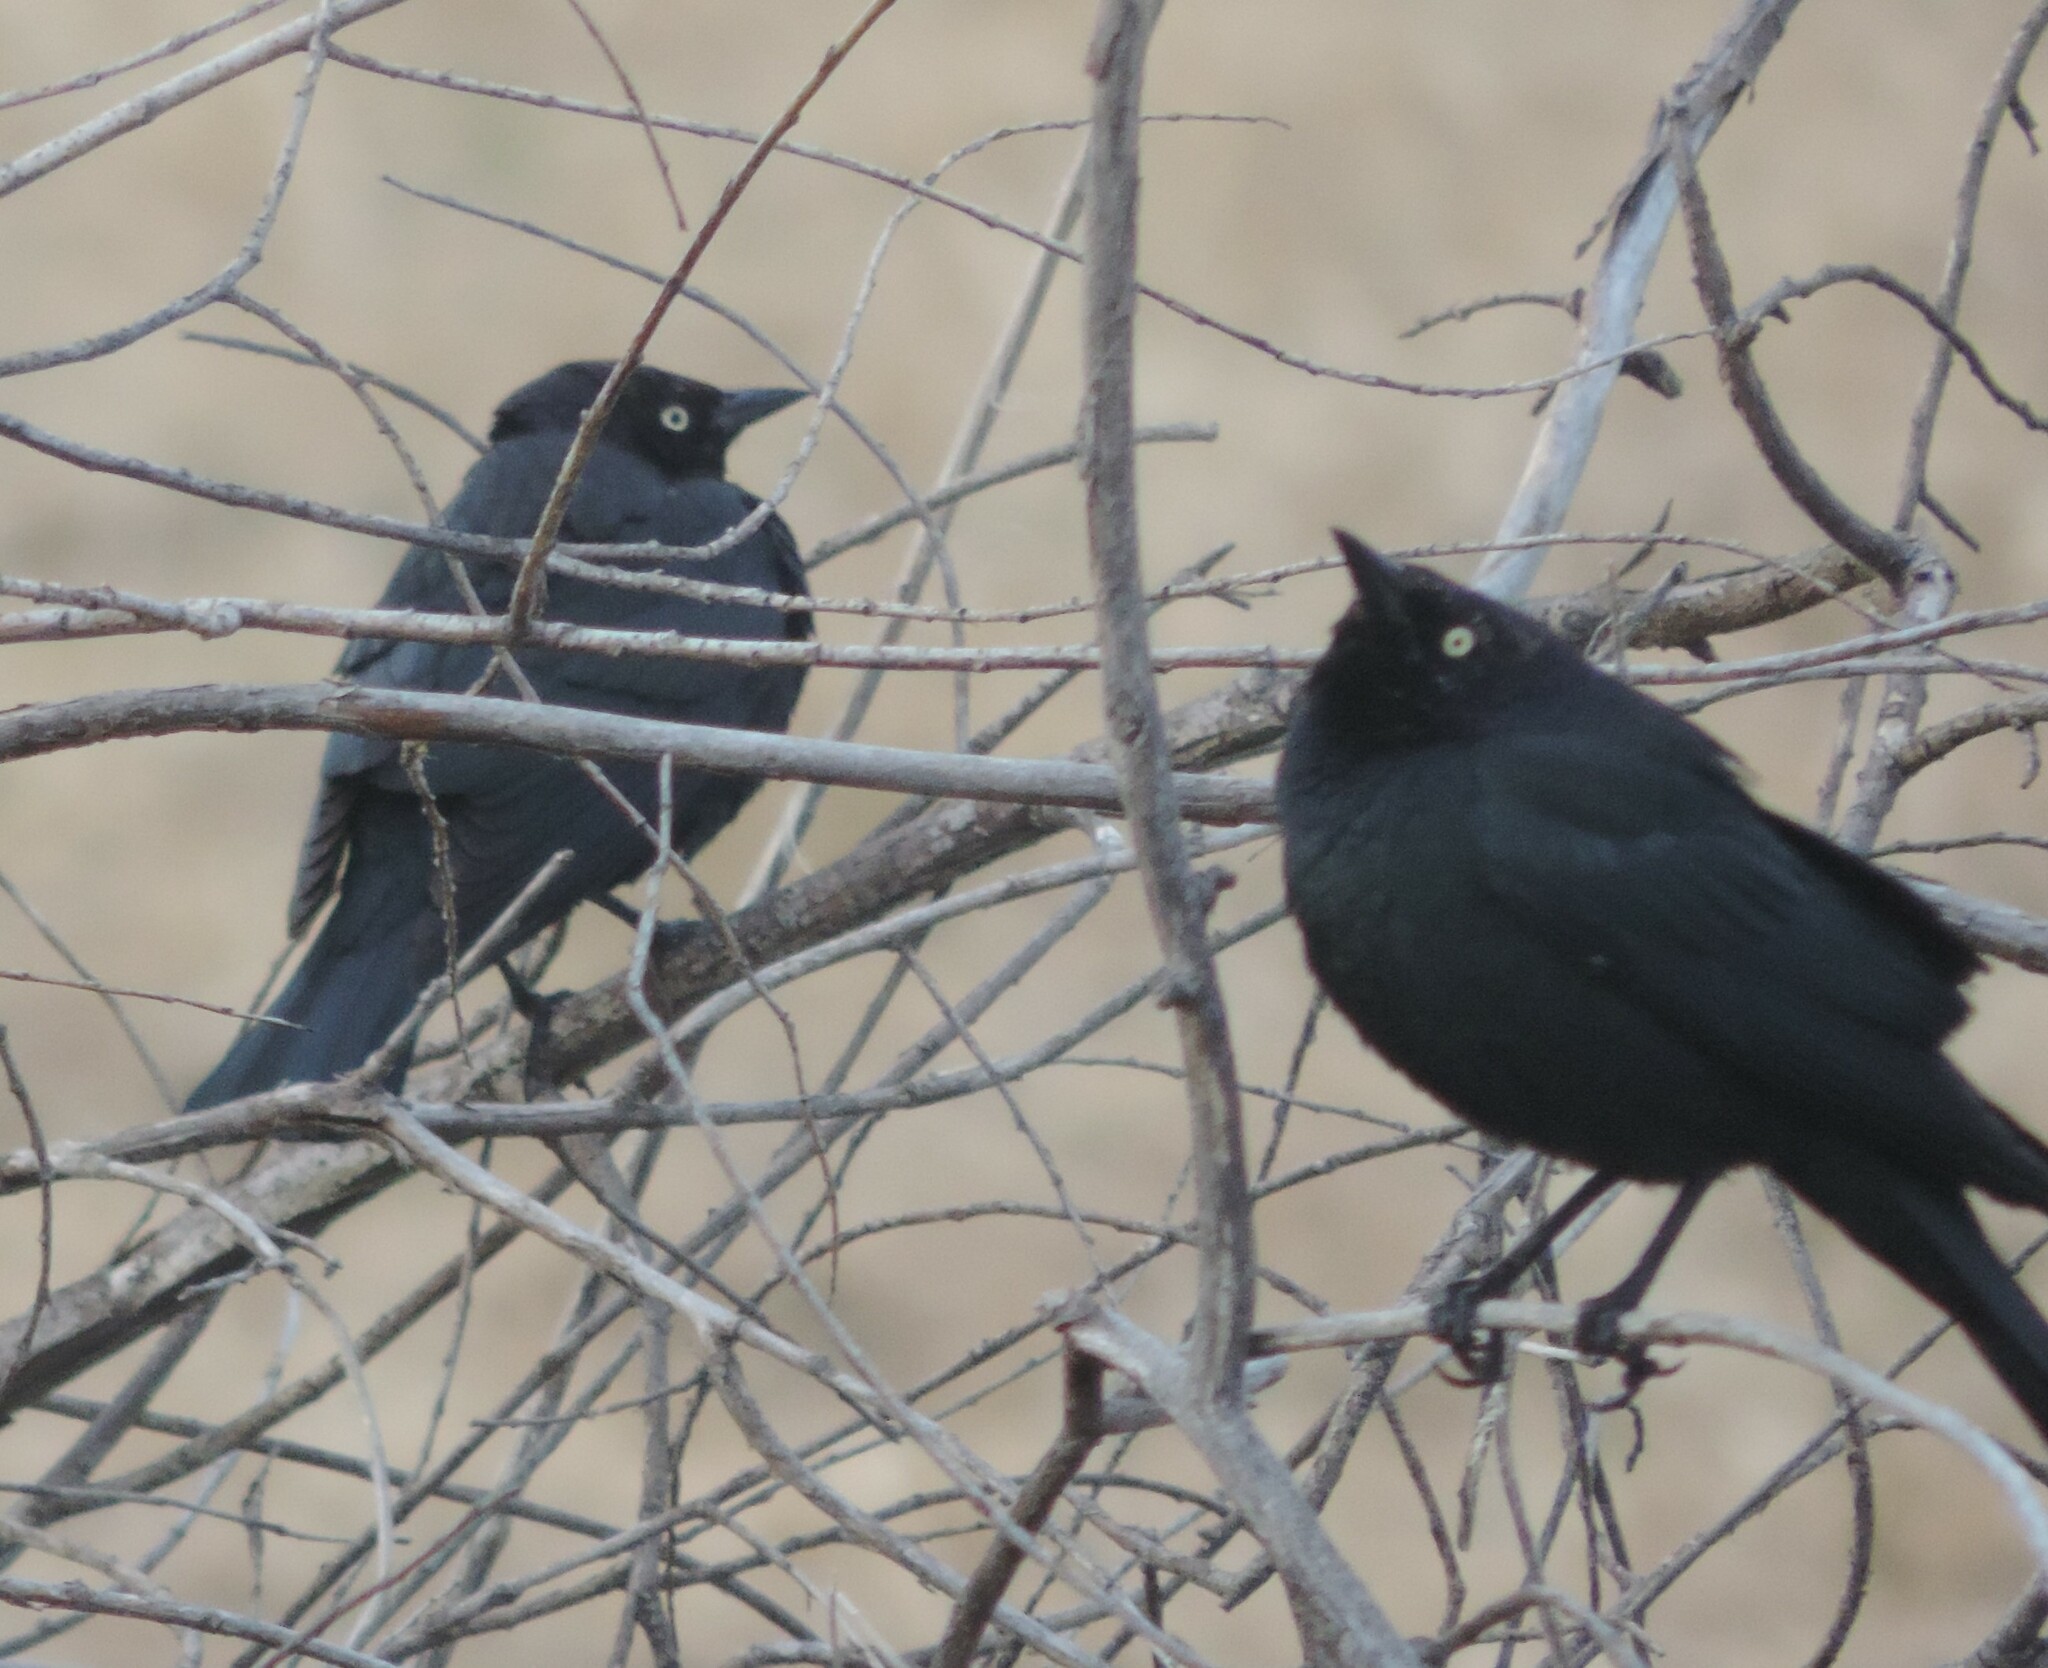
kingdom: Animalia
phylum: Chordata
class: Aves
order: Passeriformes
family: Icteridae
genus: Euphagus
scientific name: Euphagus cyanocephalus
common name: Brewer's blackbird
